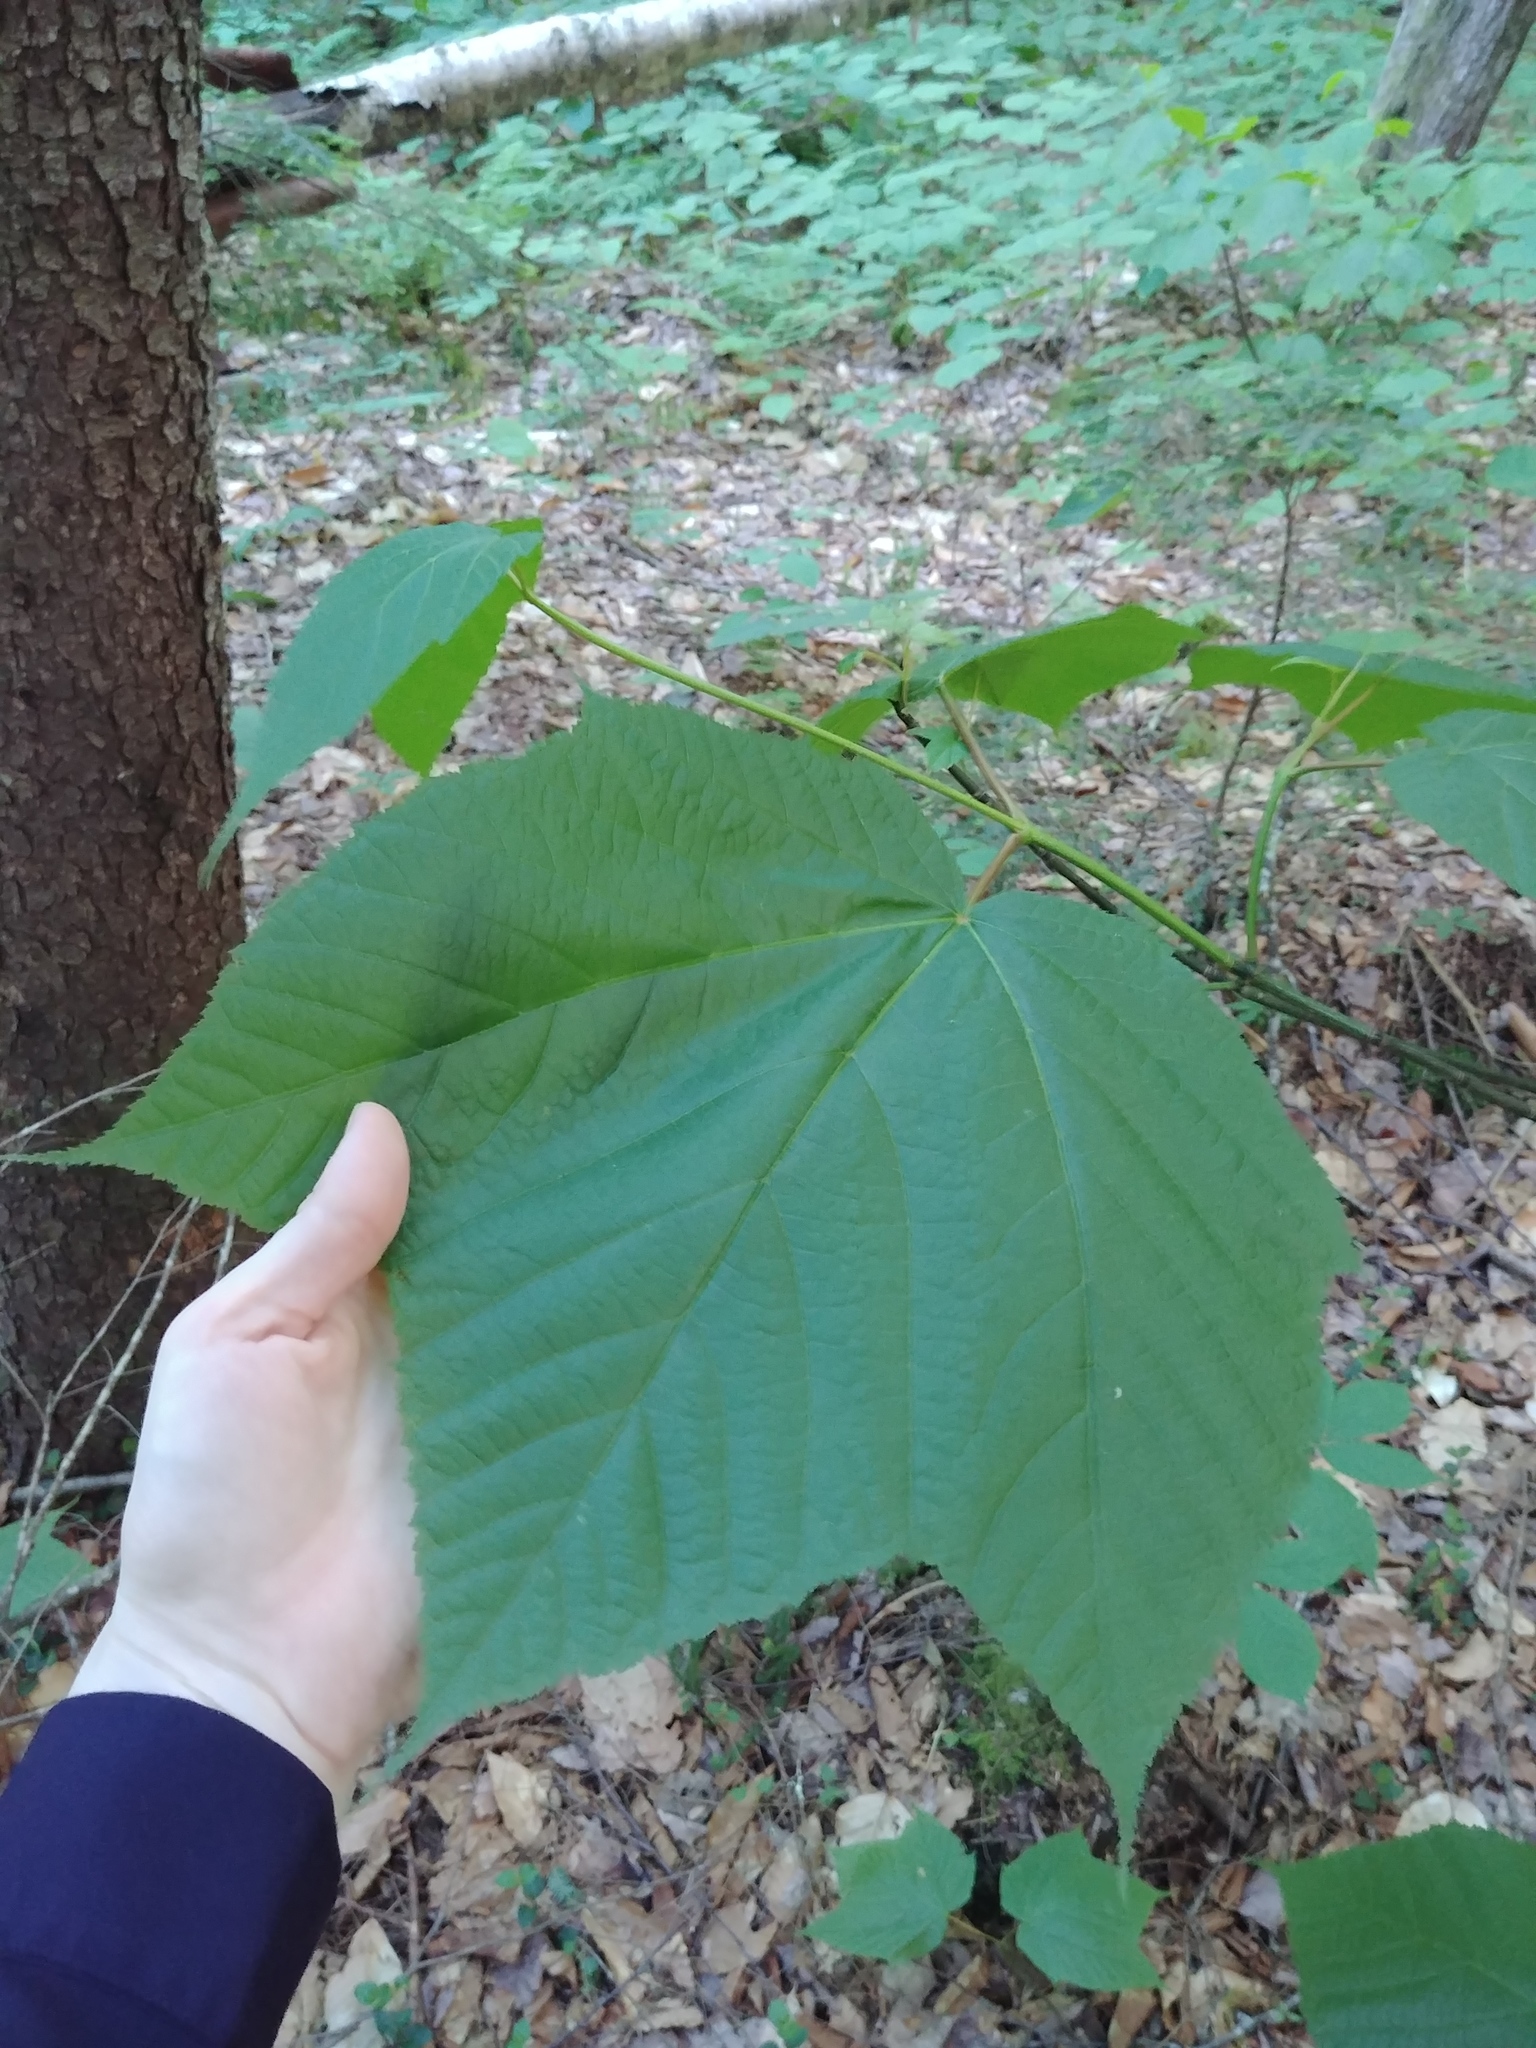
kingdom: Plantae
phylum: Tracheophyta
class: Magnoliopsida
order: Sapindales
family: Sapindaceae
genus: Acer
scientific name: Acer pensylvanicum
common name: Moosewood
